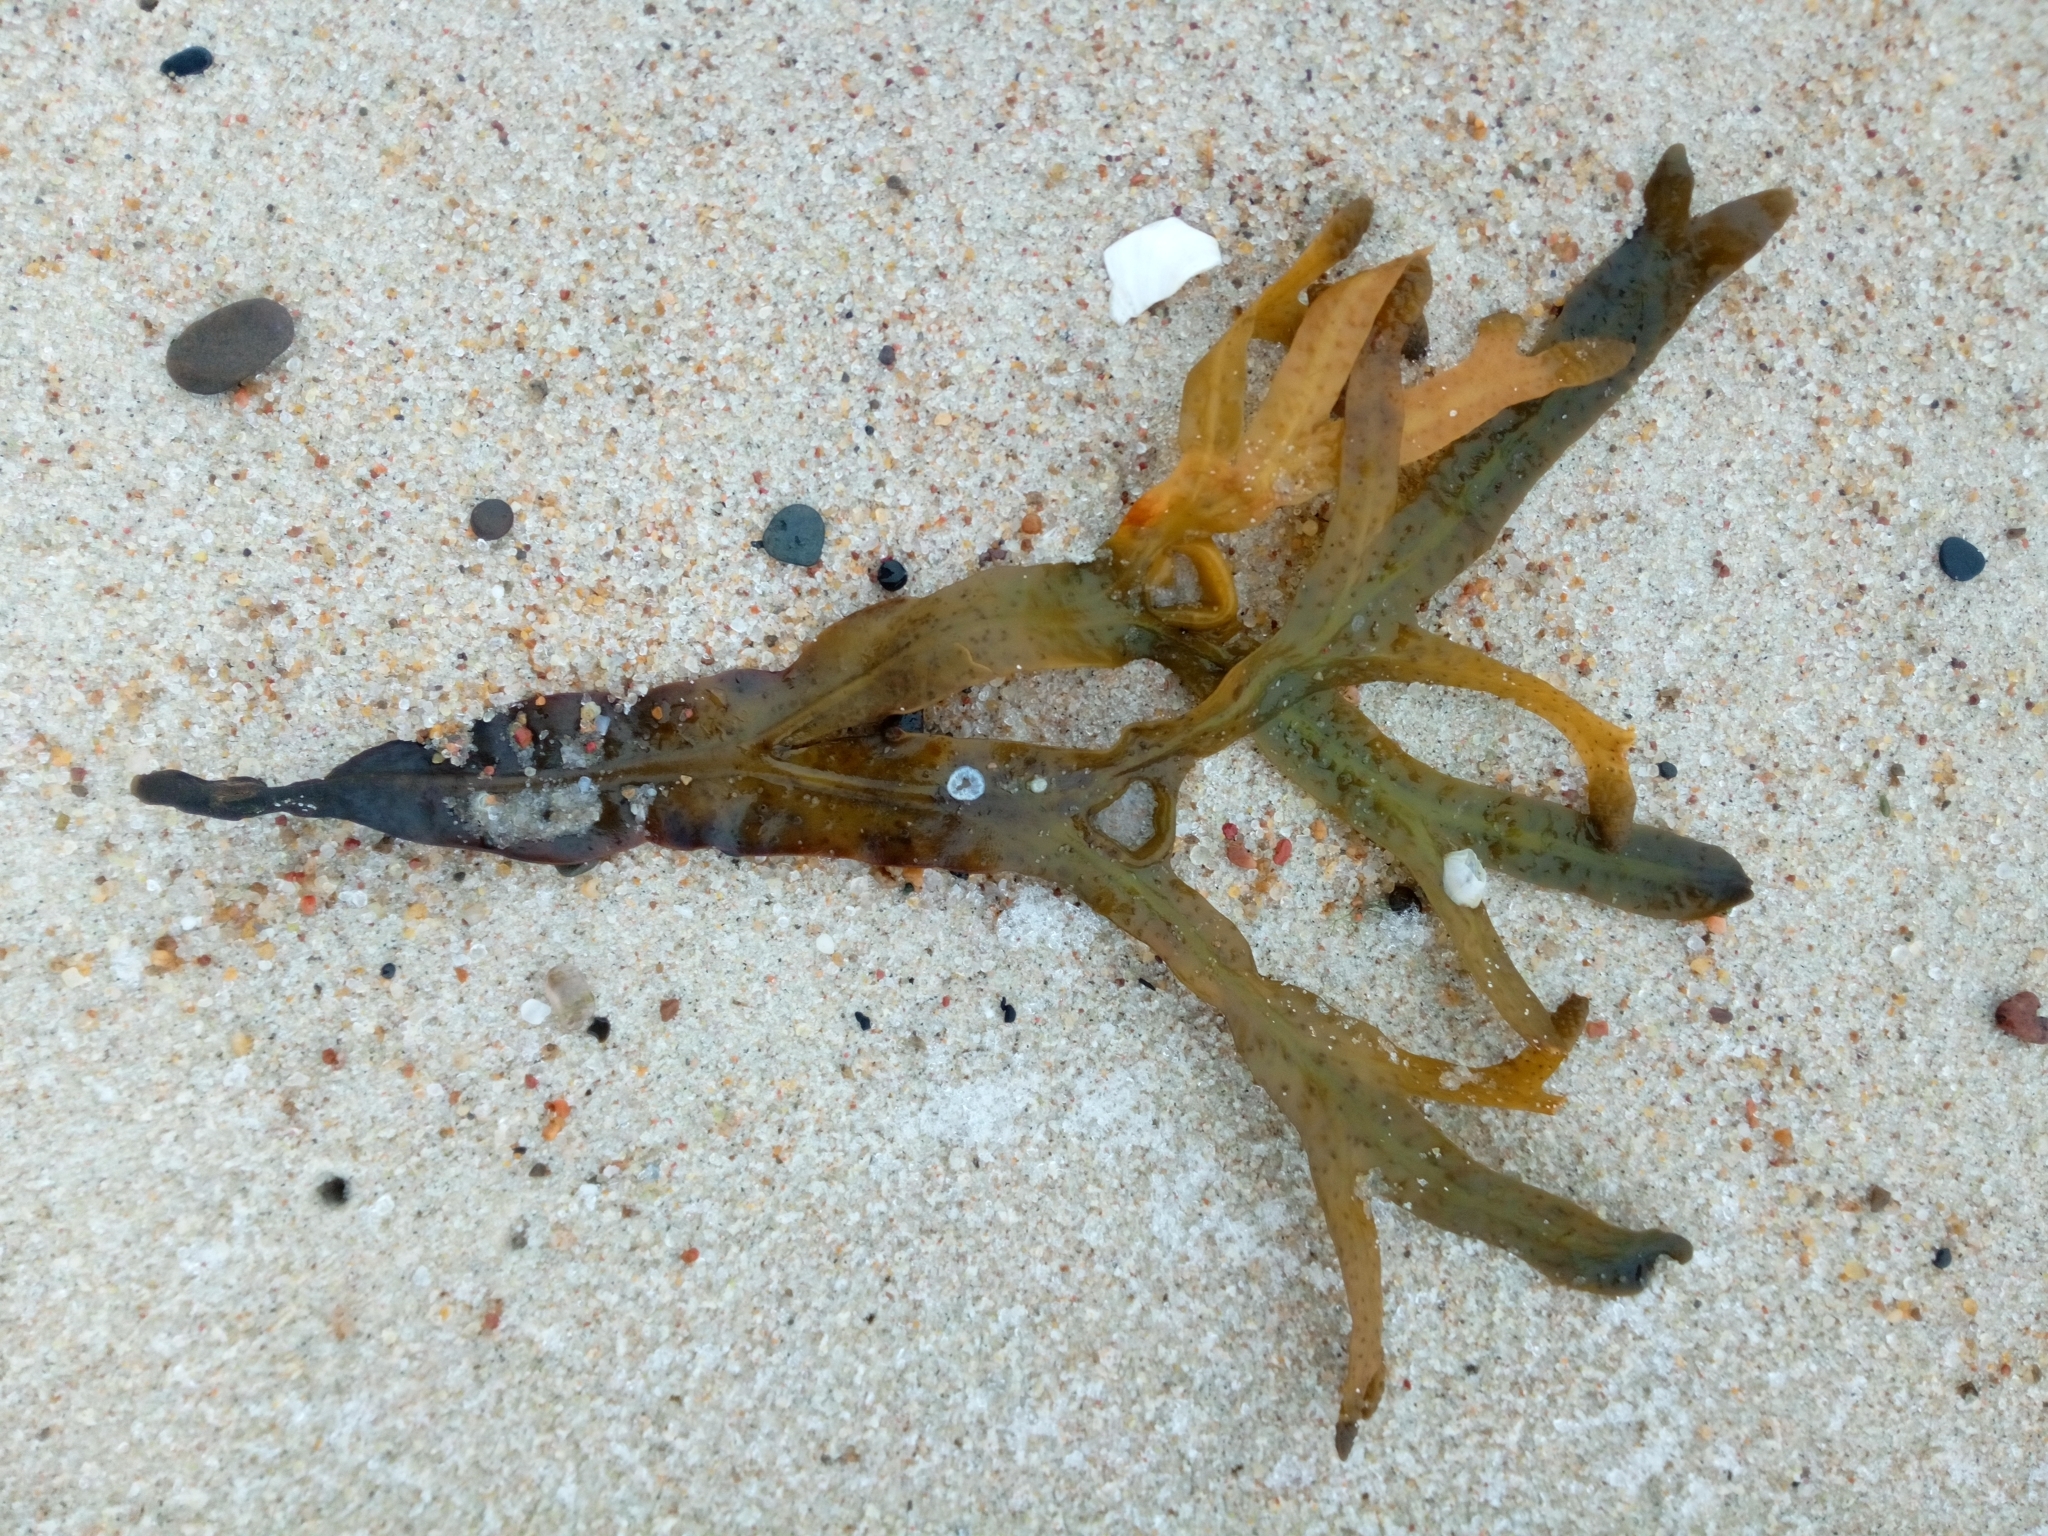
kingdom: Chromista
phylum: Ochrophyta
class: Phaeophyceae
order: Fucales
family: Fucaceae
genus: Fucus
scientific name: Fucus vesiculosus
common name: Bladder wrack
